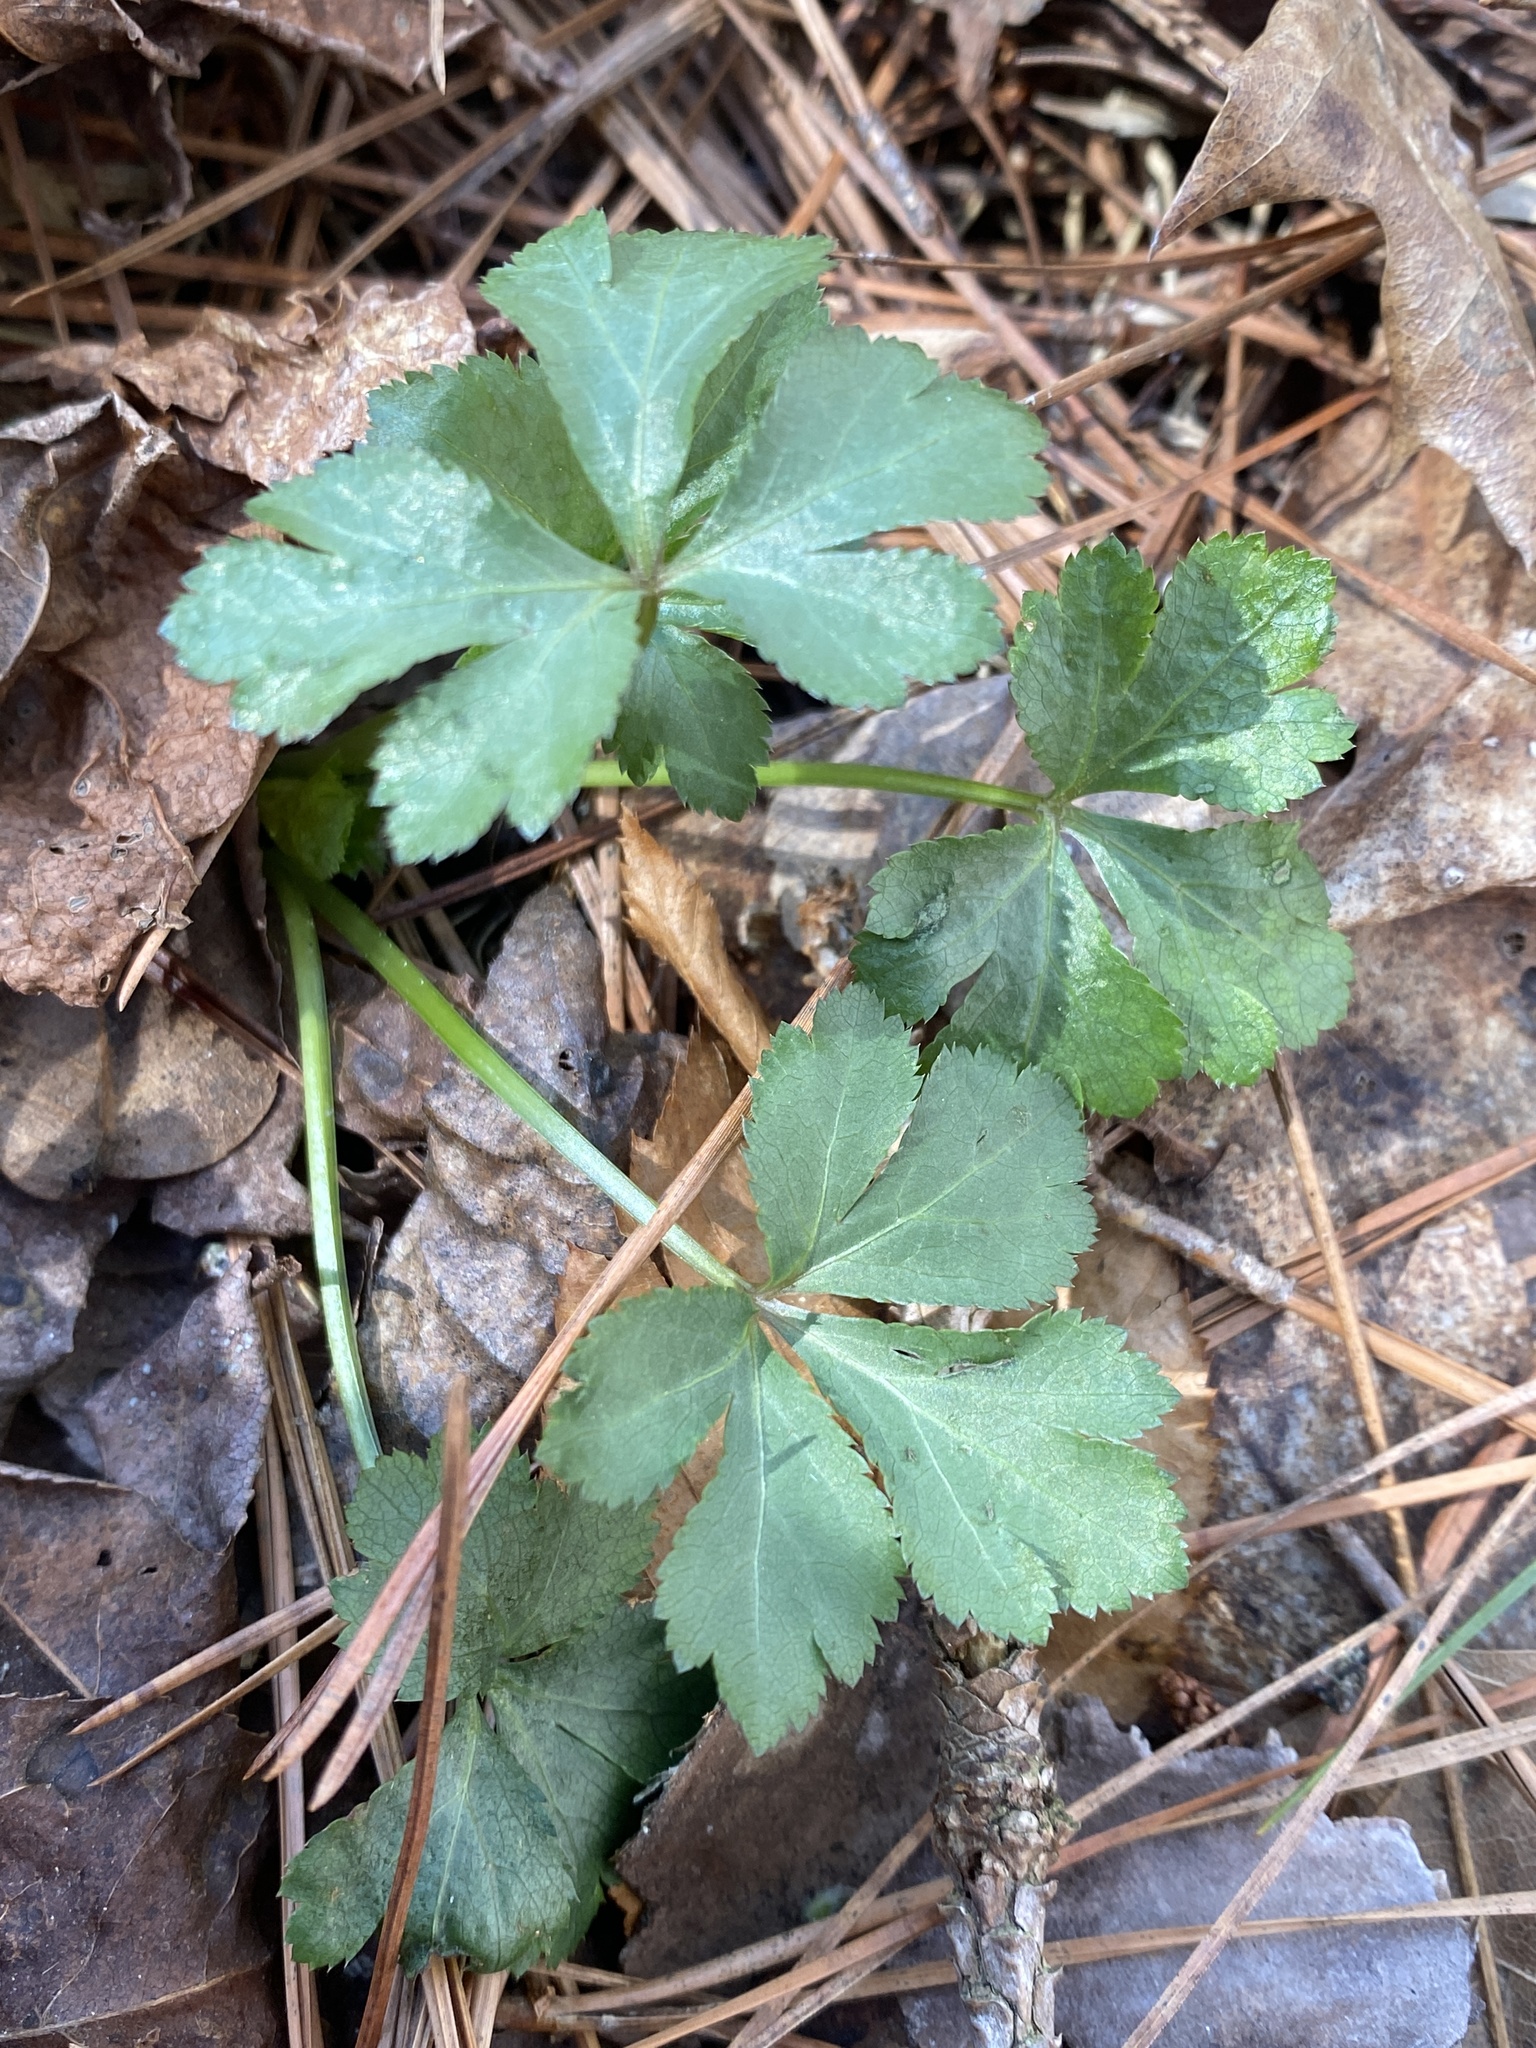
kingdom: Plantae
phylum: Tracheophyta
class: Magnoliopsida
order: Apiales
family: Apiaceae
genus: Sanicula
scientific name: Sanicula canadensis
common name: Canada sanicle
